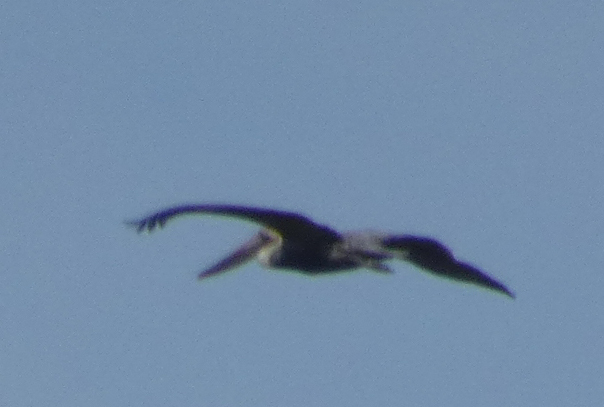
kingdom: Animalia
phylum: Chordata
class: Aves
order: Pelecaniformes
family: Pelecanidae
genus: Pelecanus
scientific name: Pelecanus occidentalis
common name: Brown pelican
